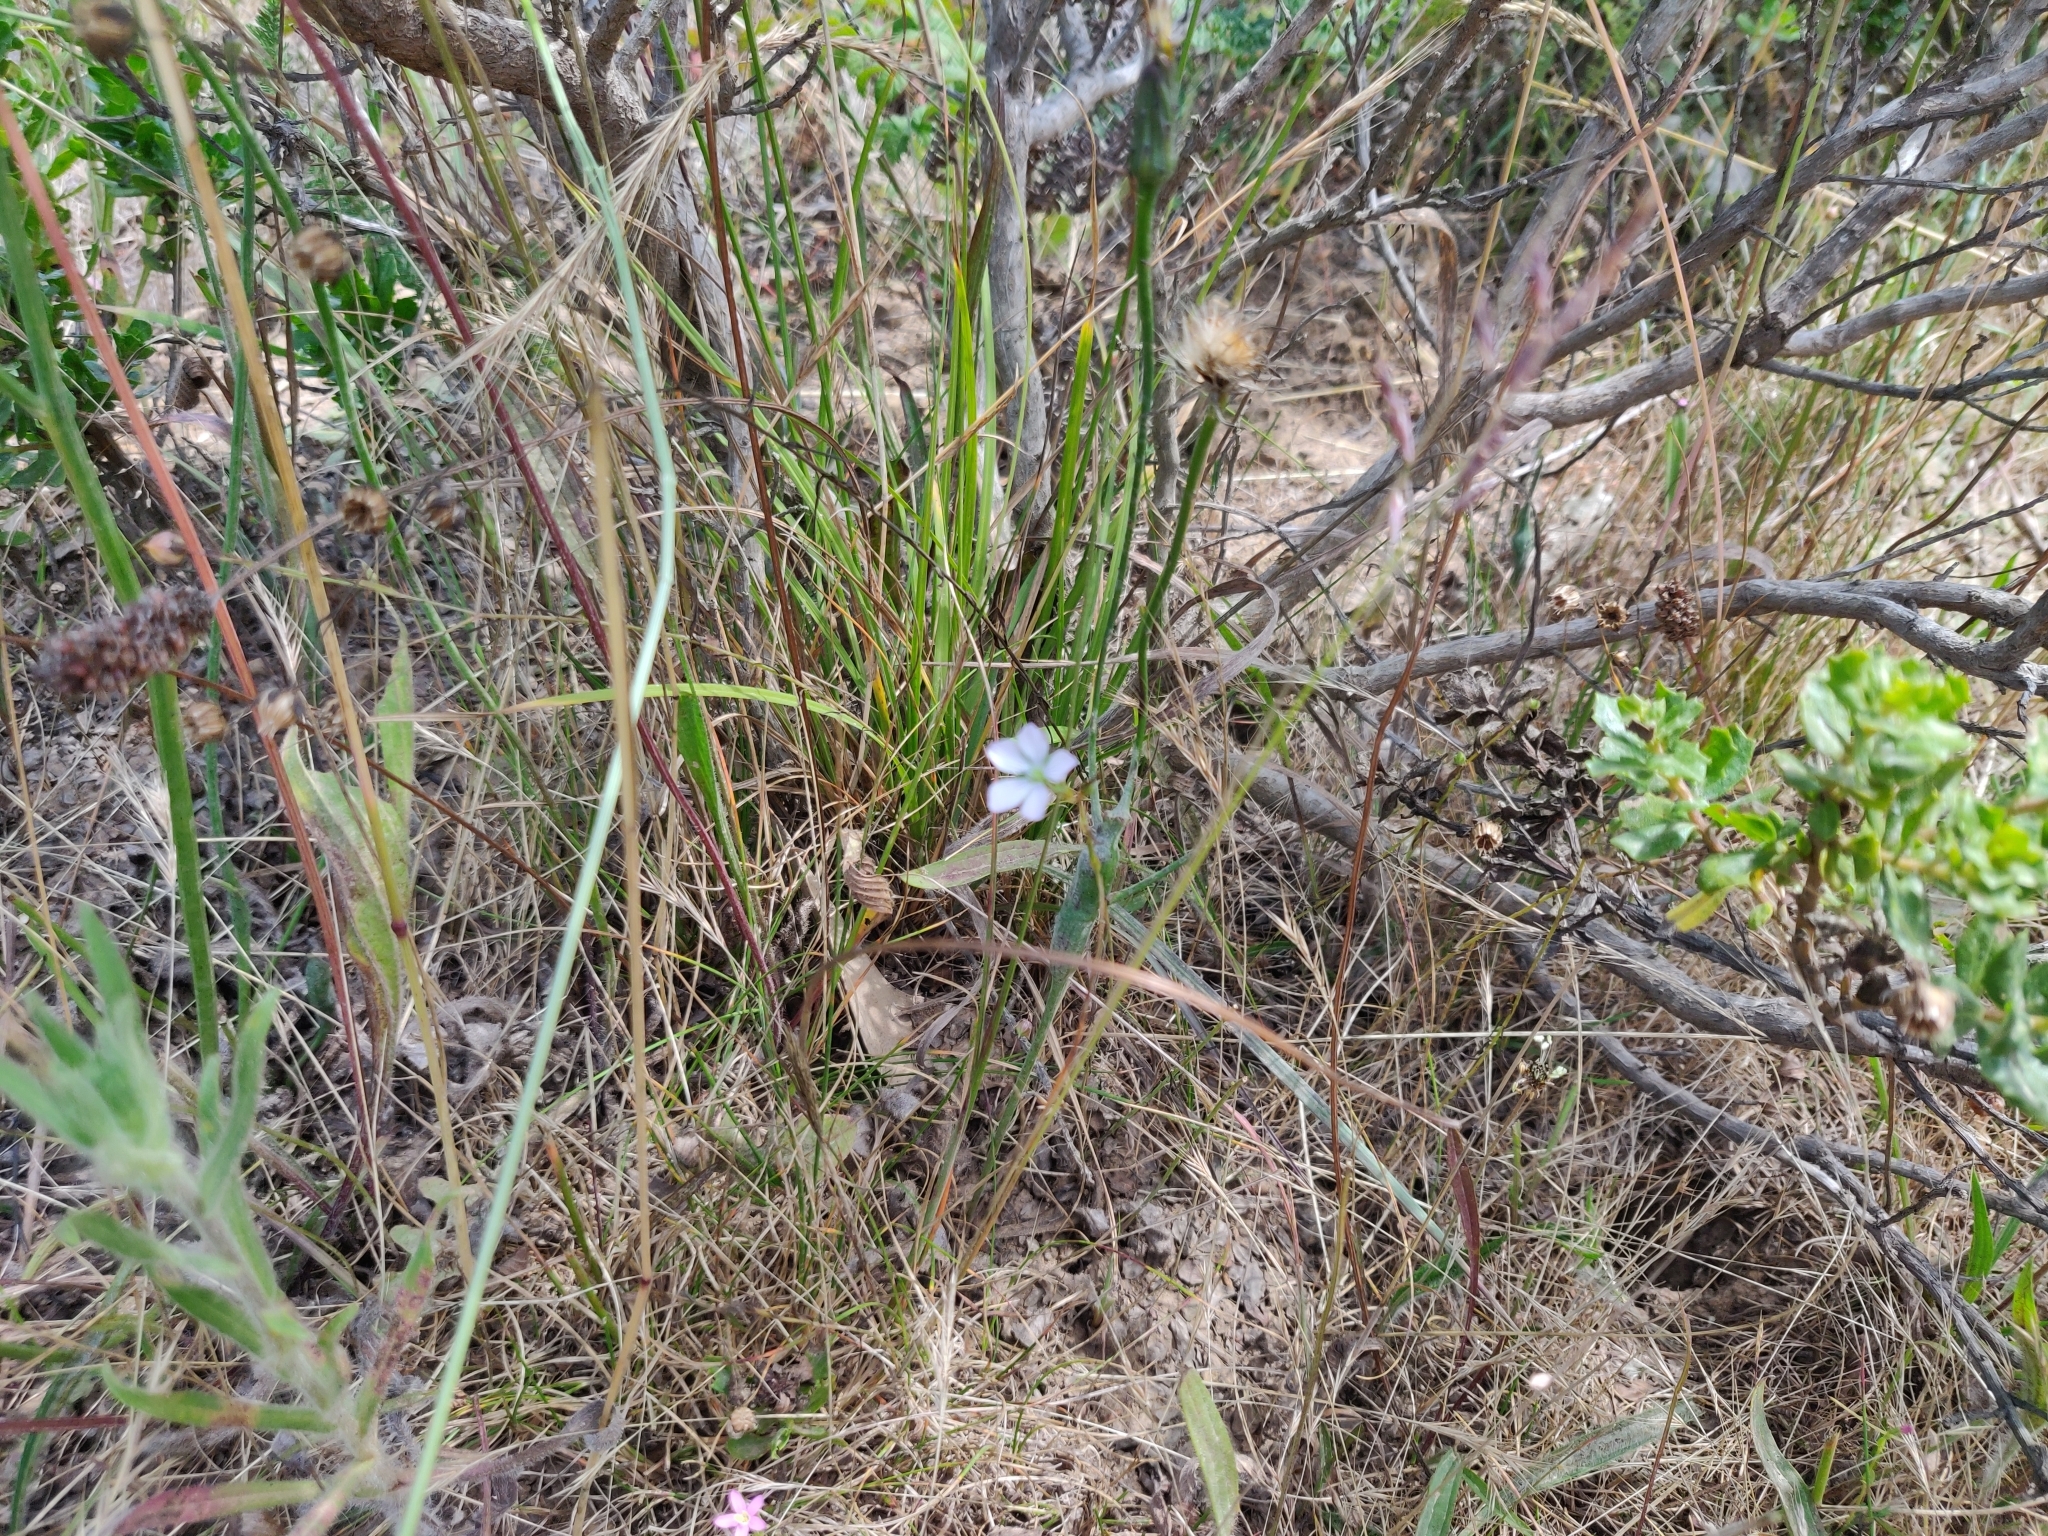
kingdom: Plantae
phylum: Tracheophyta
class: Magnoliopsida
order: Malpighiales
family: Linaceae
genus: Linum
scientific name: Linum bienne
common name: Pale flax
